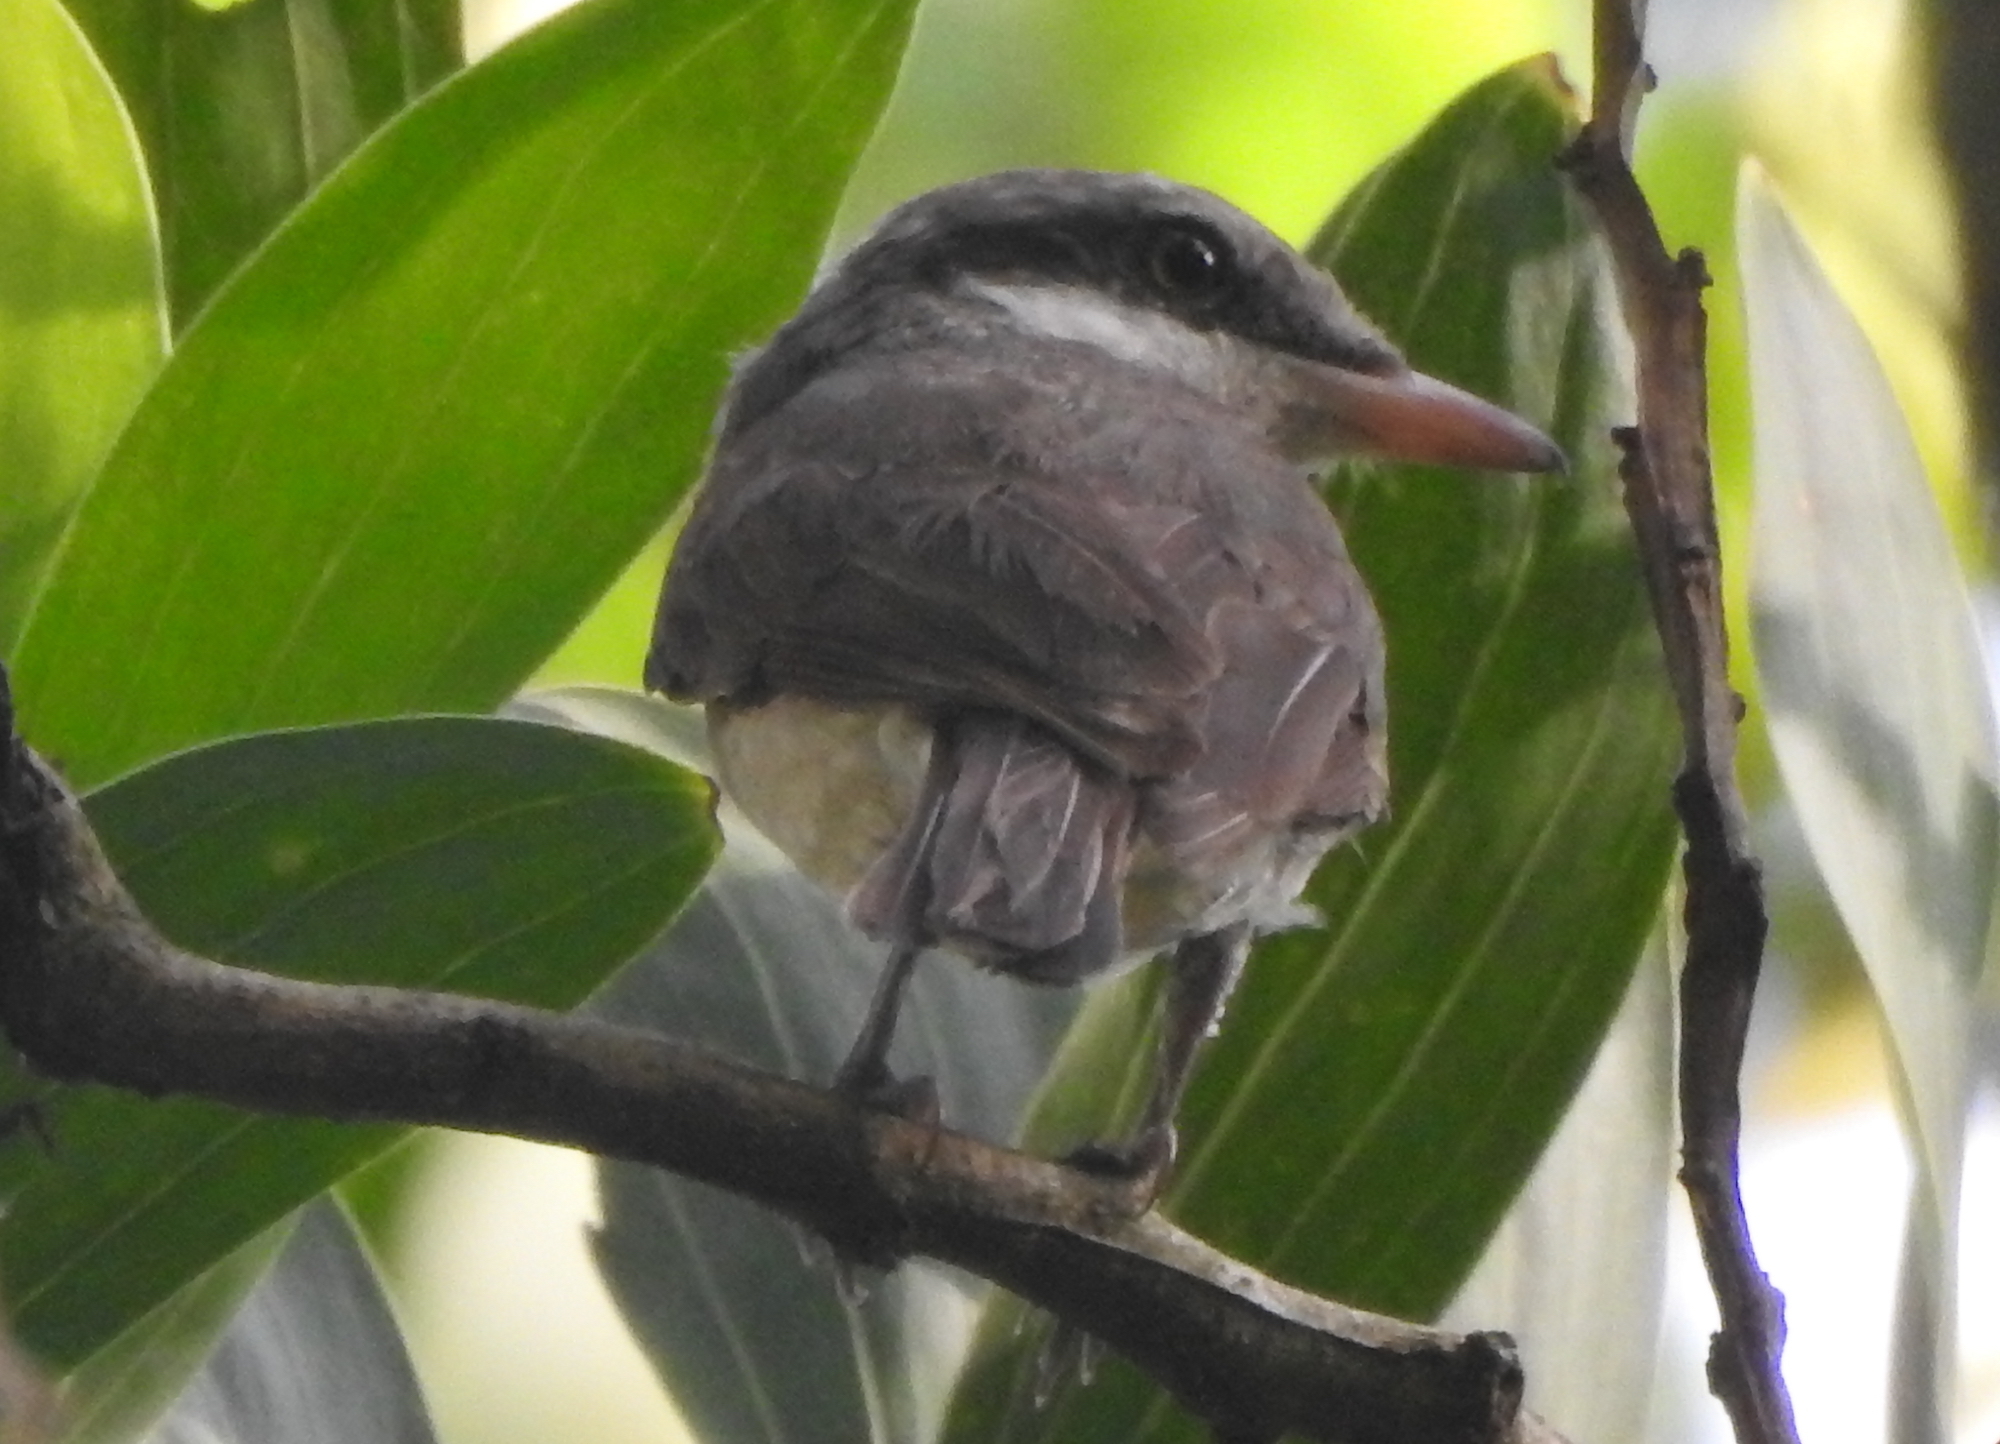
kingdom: Animalia
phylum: Chordata
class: Aves
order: Passeriformes
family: Tephrodornithidae
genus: Tephrodornis
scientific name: Tephrodornis virgatus
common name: Large woodshrike
